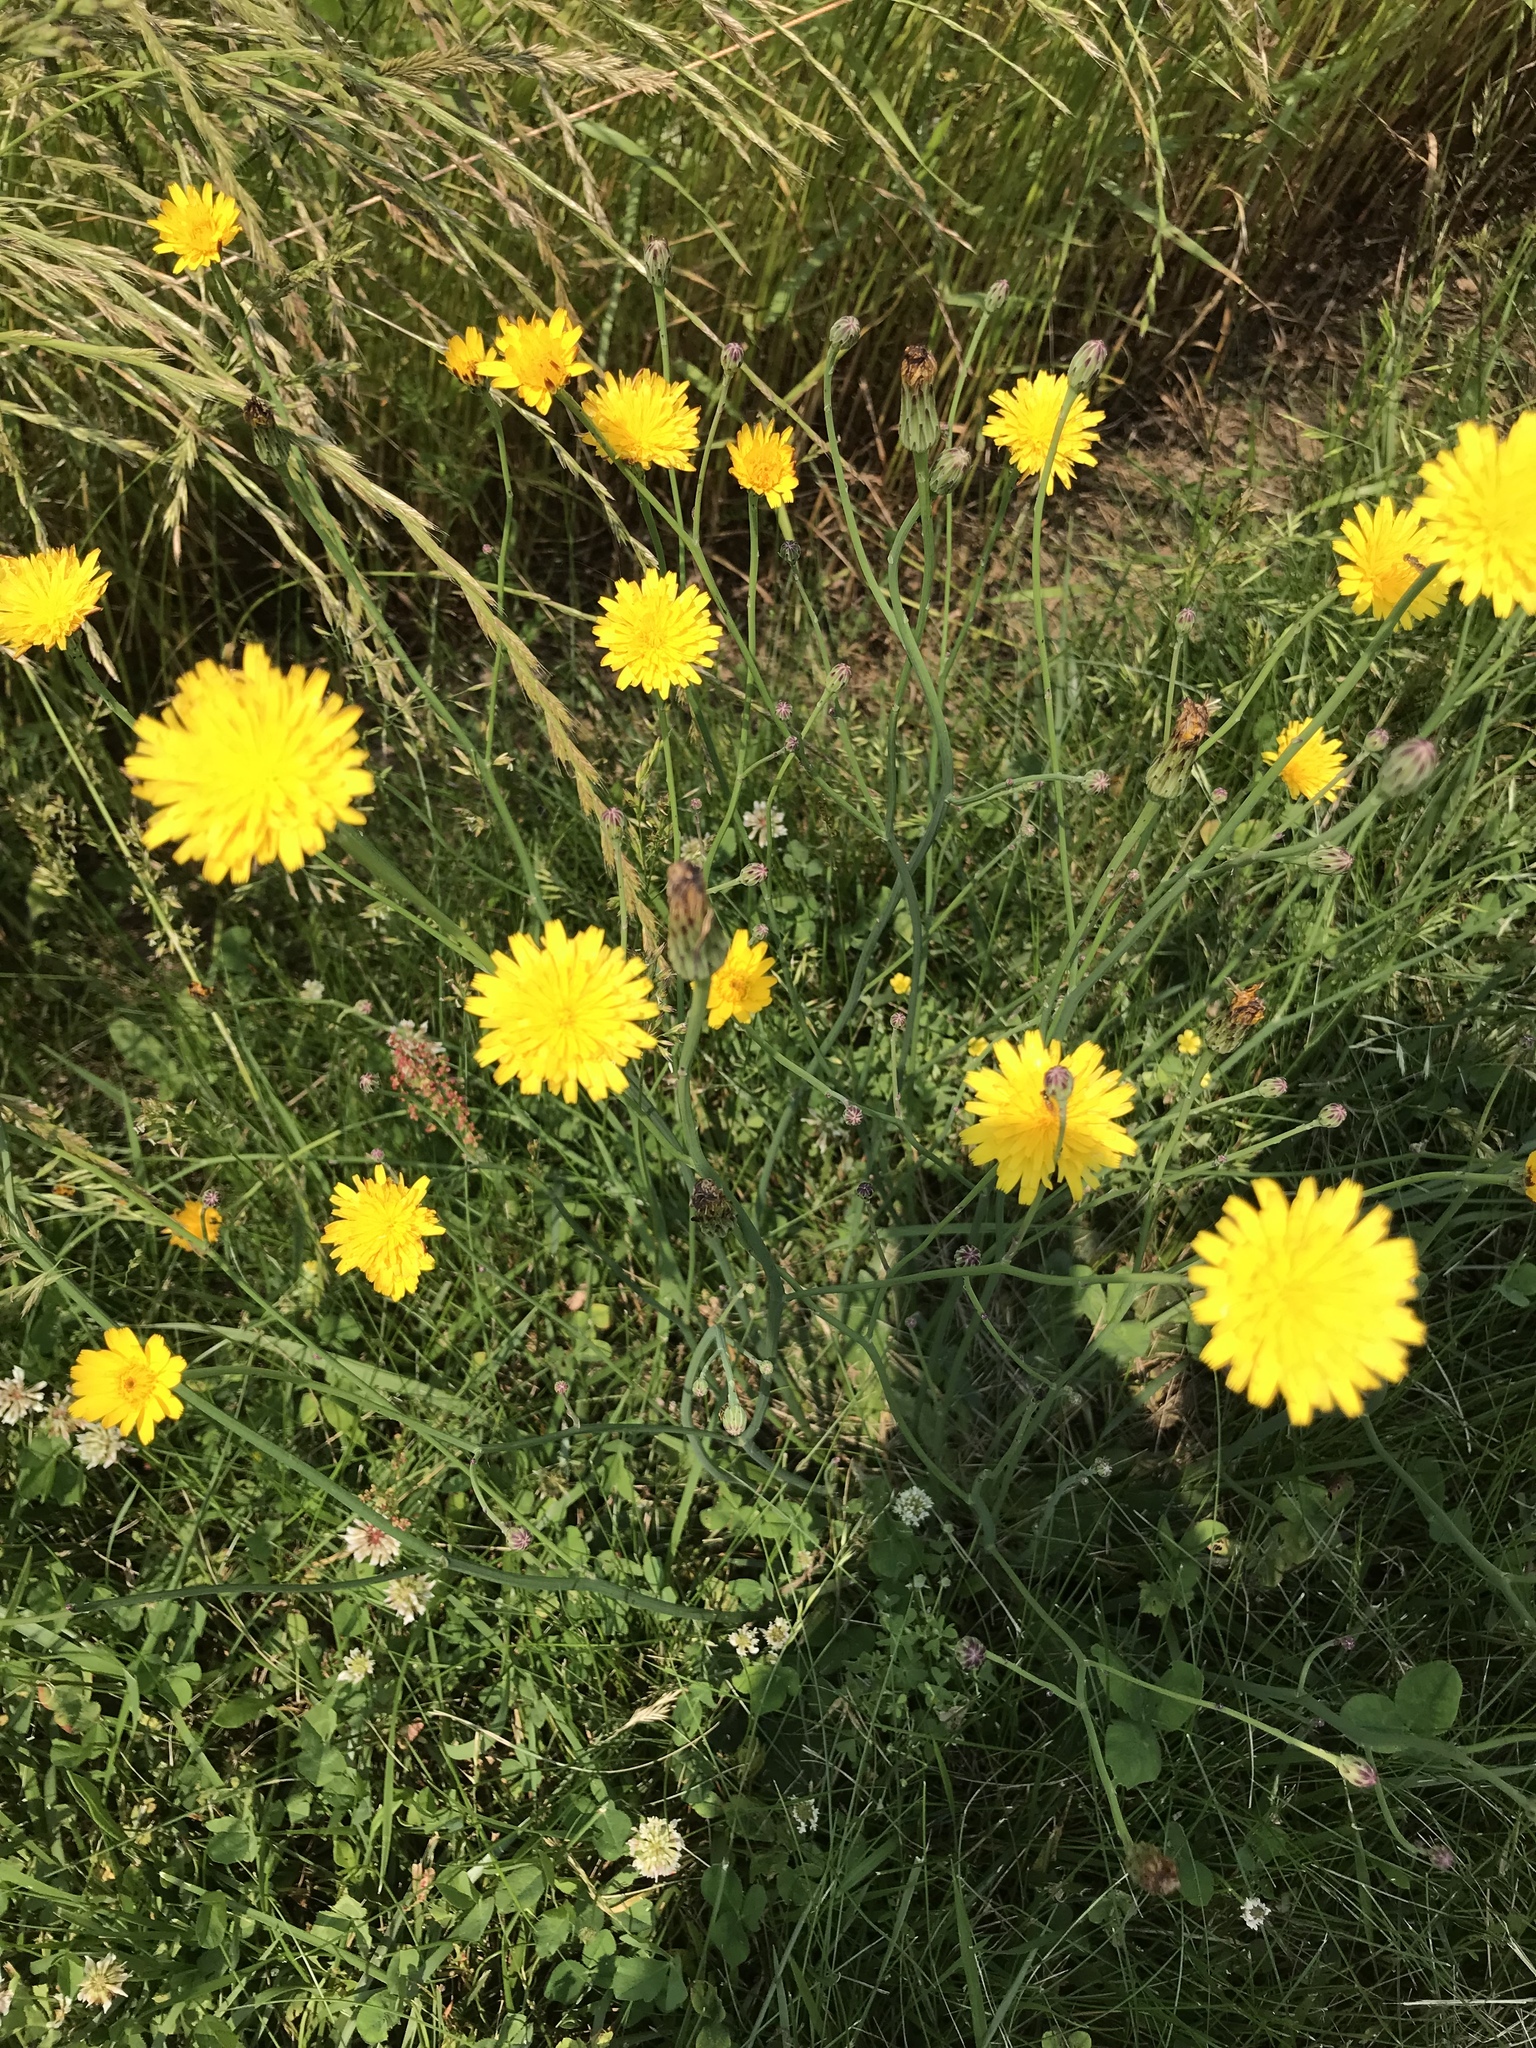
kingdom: Plantae
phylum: Tracheophyta
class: Magnoliopsida
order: Asterales
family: Asteraceae
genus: Hypochaeris
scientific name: Hypochaeris radicata
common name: Flatweed
